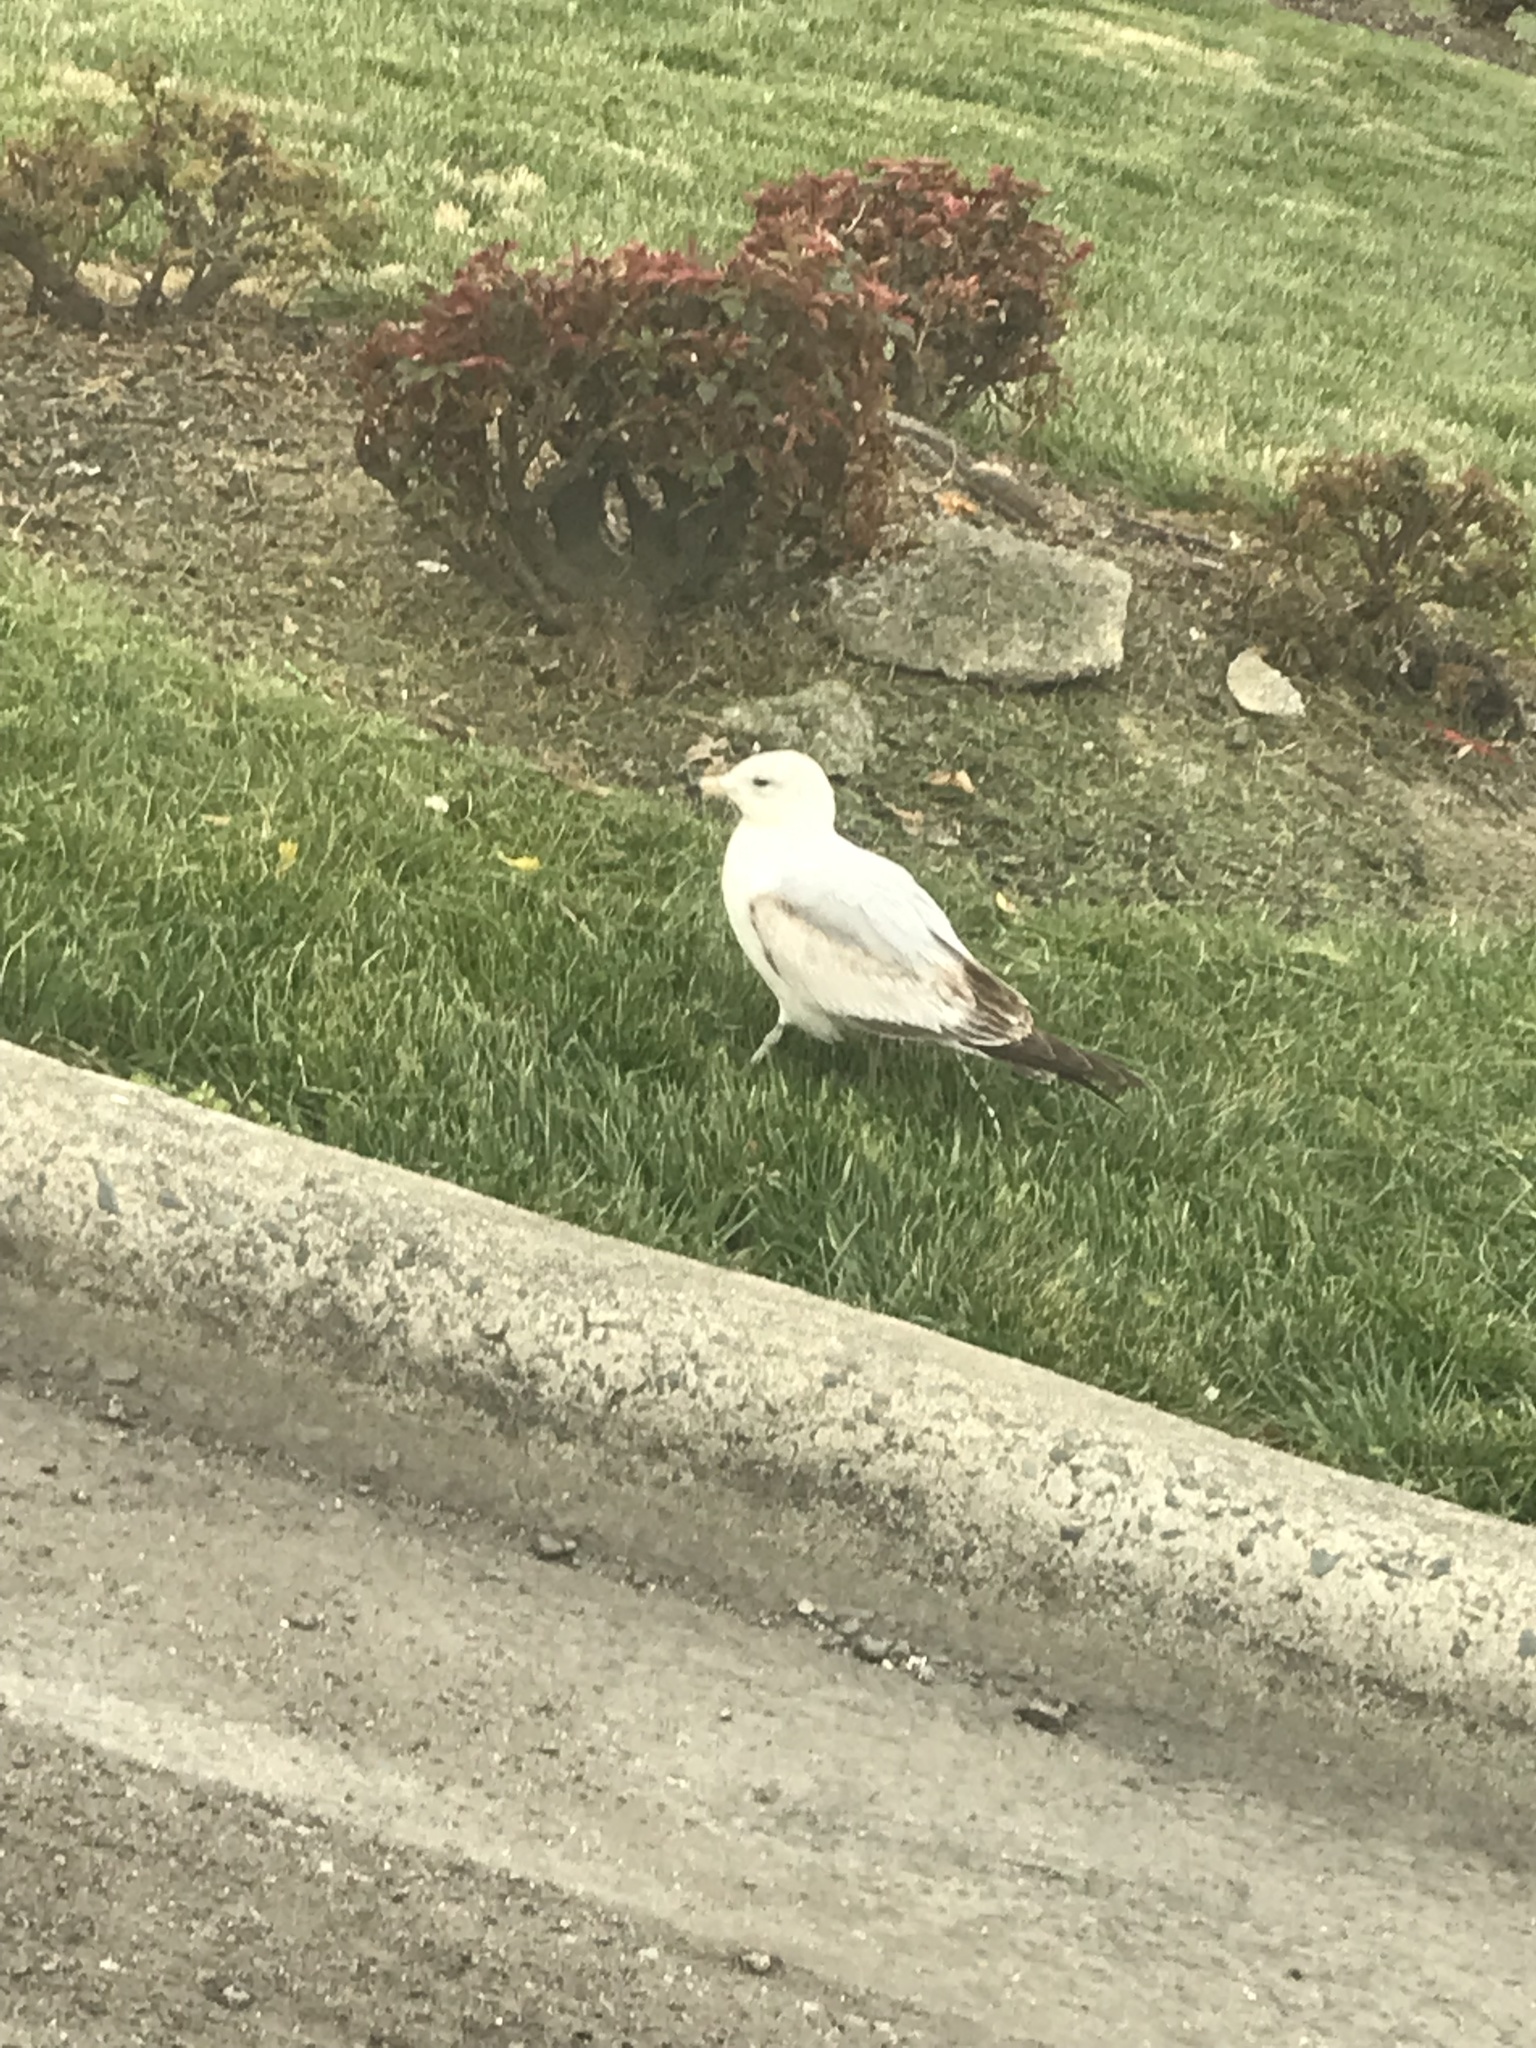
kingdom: Animalia
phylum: Chordata
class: Aves
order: Charadriiformes
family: Laridae
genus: Larus
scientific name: Larus delawarensis
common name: Ring-billed gull
